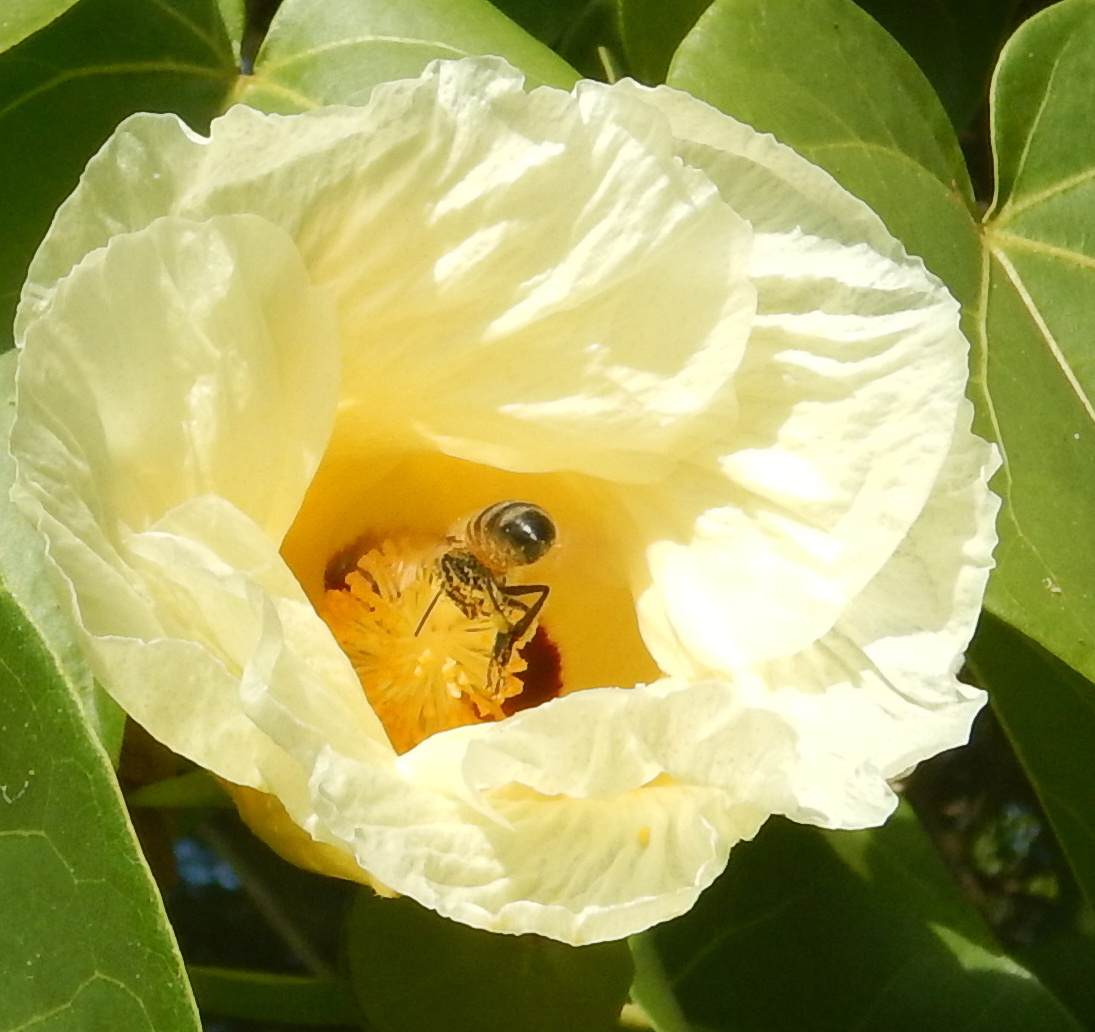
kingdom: Animalia
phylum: Arthropoda
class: Insecta
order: Hymenoptera
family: Apidae
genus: Apis
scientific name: Apis mellifera
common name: Honey bee
